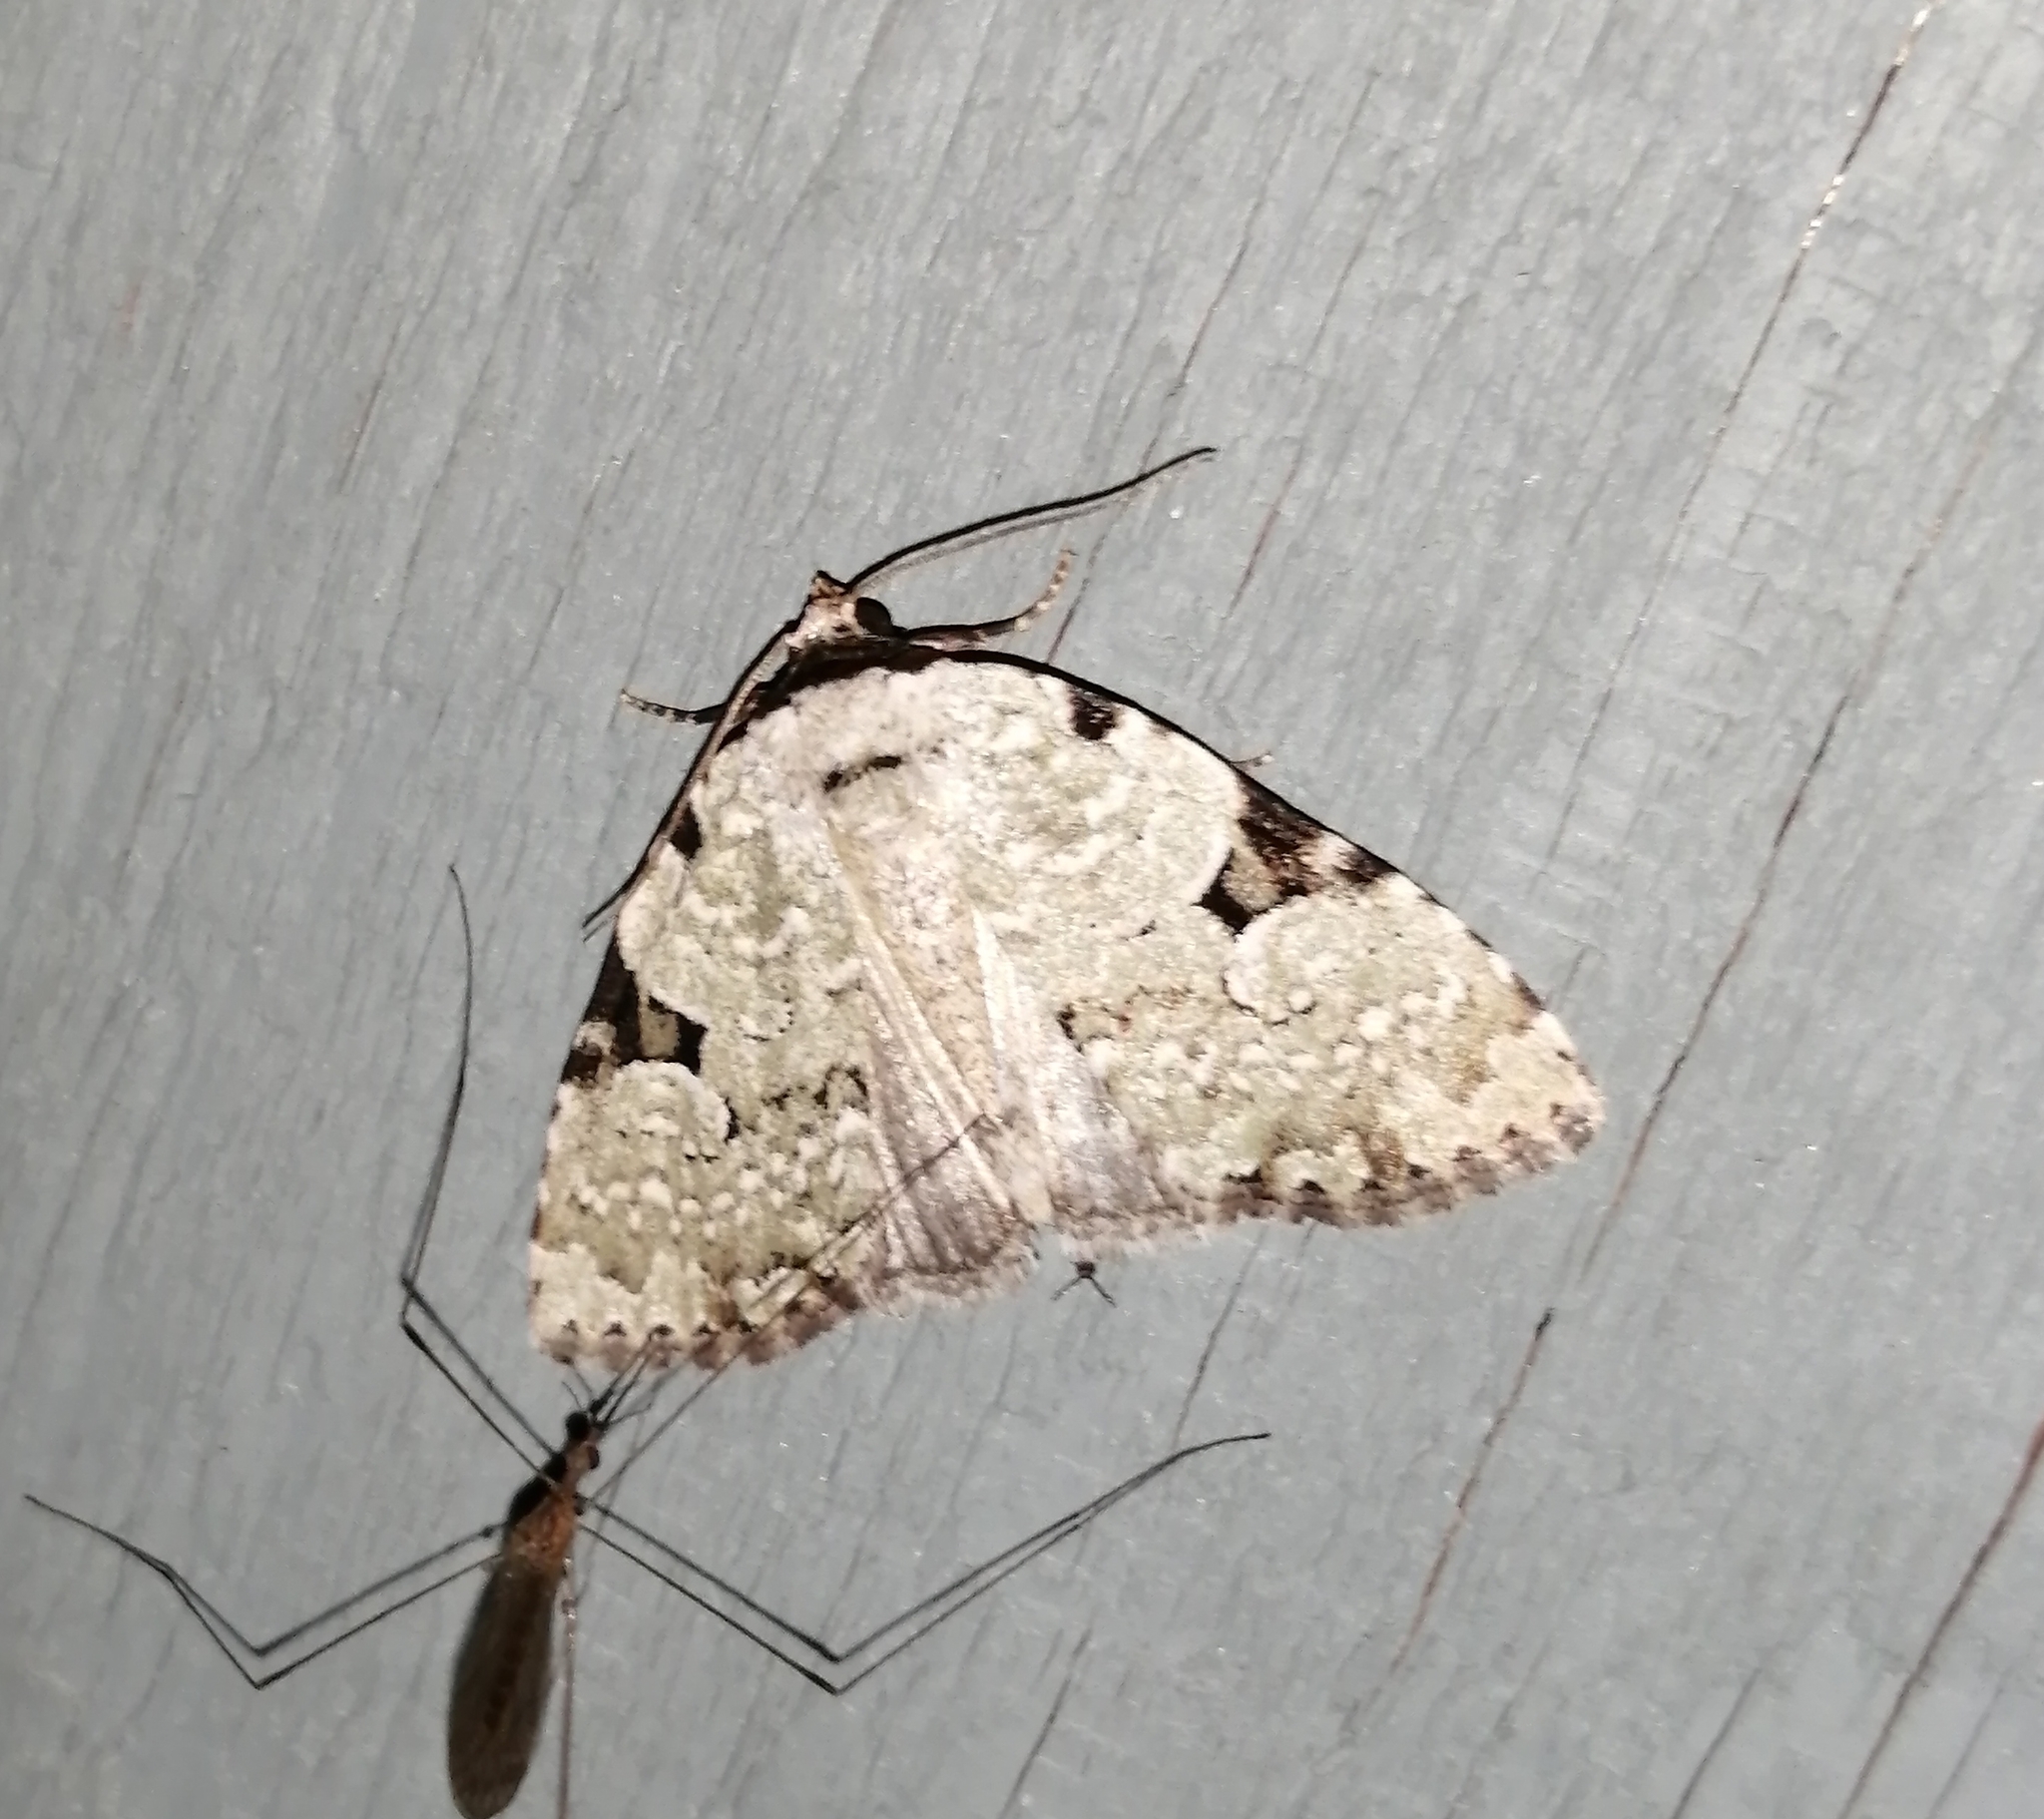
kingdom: Animalia
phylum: Arthropoda
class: Insecta
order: Lepidoptera
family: Noctuidae
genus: Leuconycta
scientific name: Leuconycta diphteroides
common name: Green leuconycta moth
